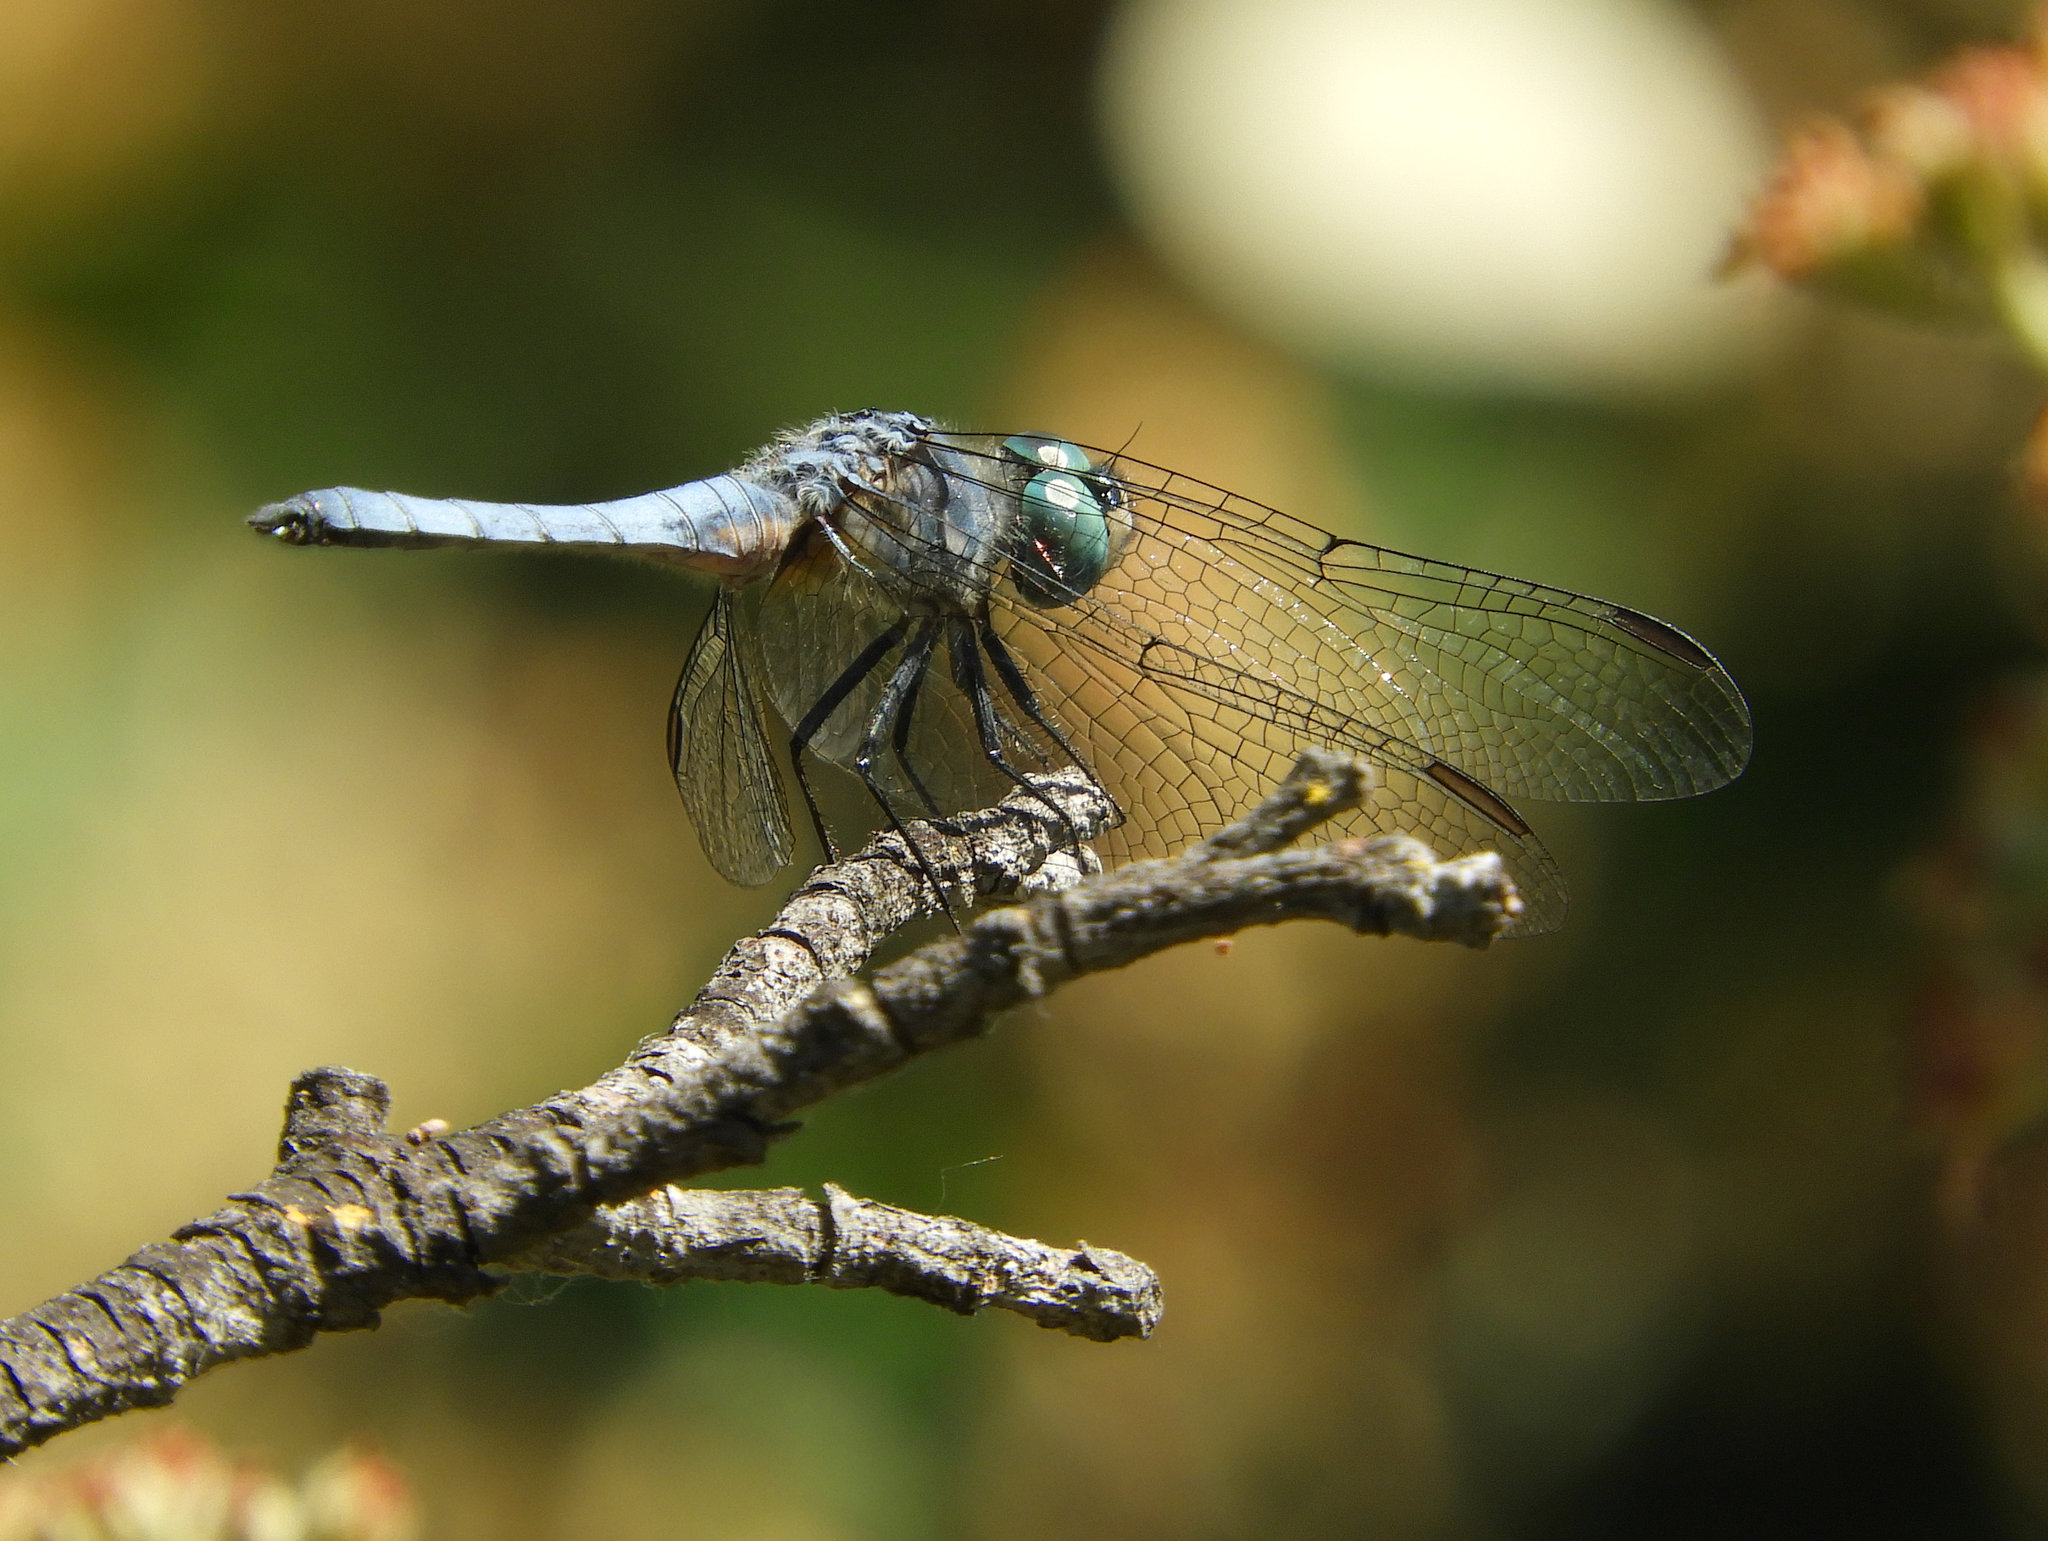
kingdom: Animalia
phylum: Arthropoda
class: Insecta
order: Odonata
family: Libellulidae
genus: Pachydiplax
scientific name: Pachydiplax longipennis
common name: Blue dasher
